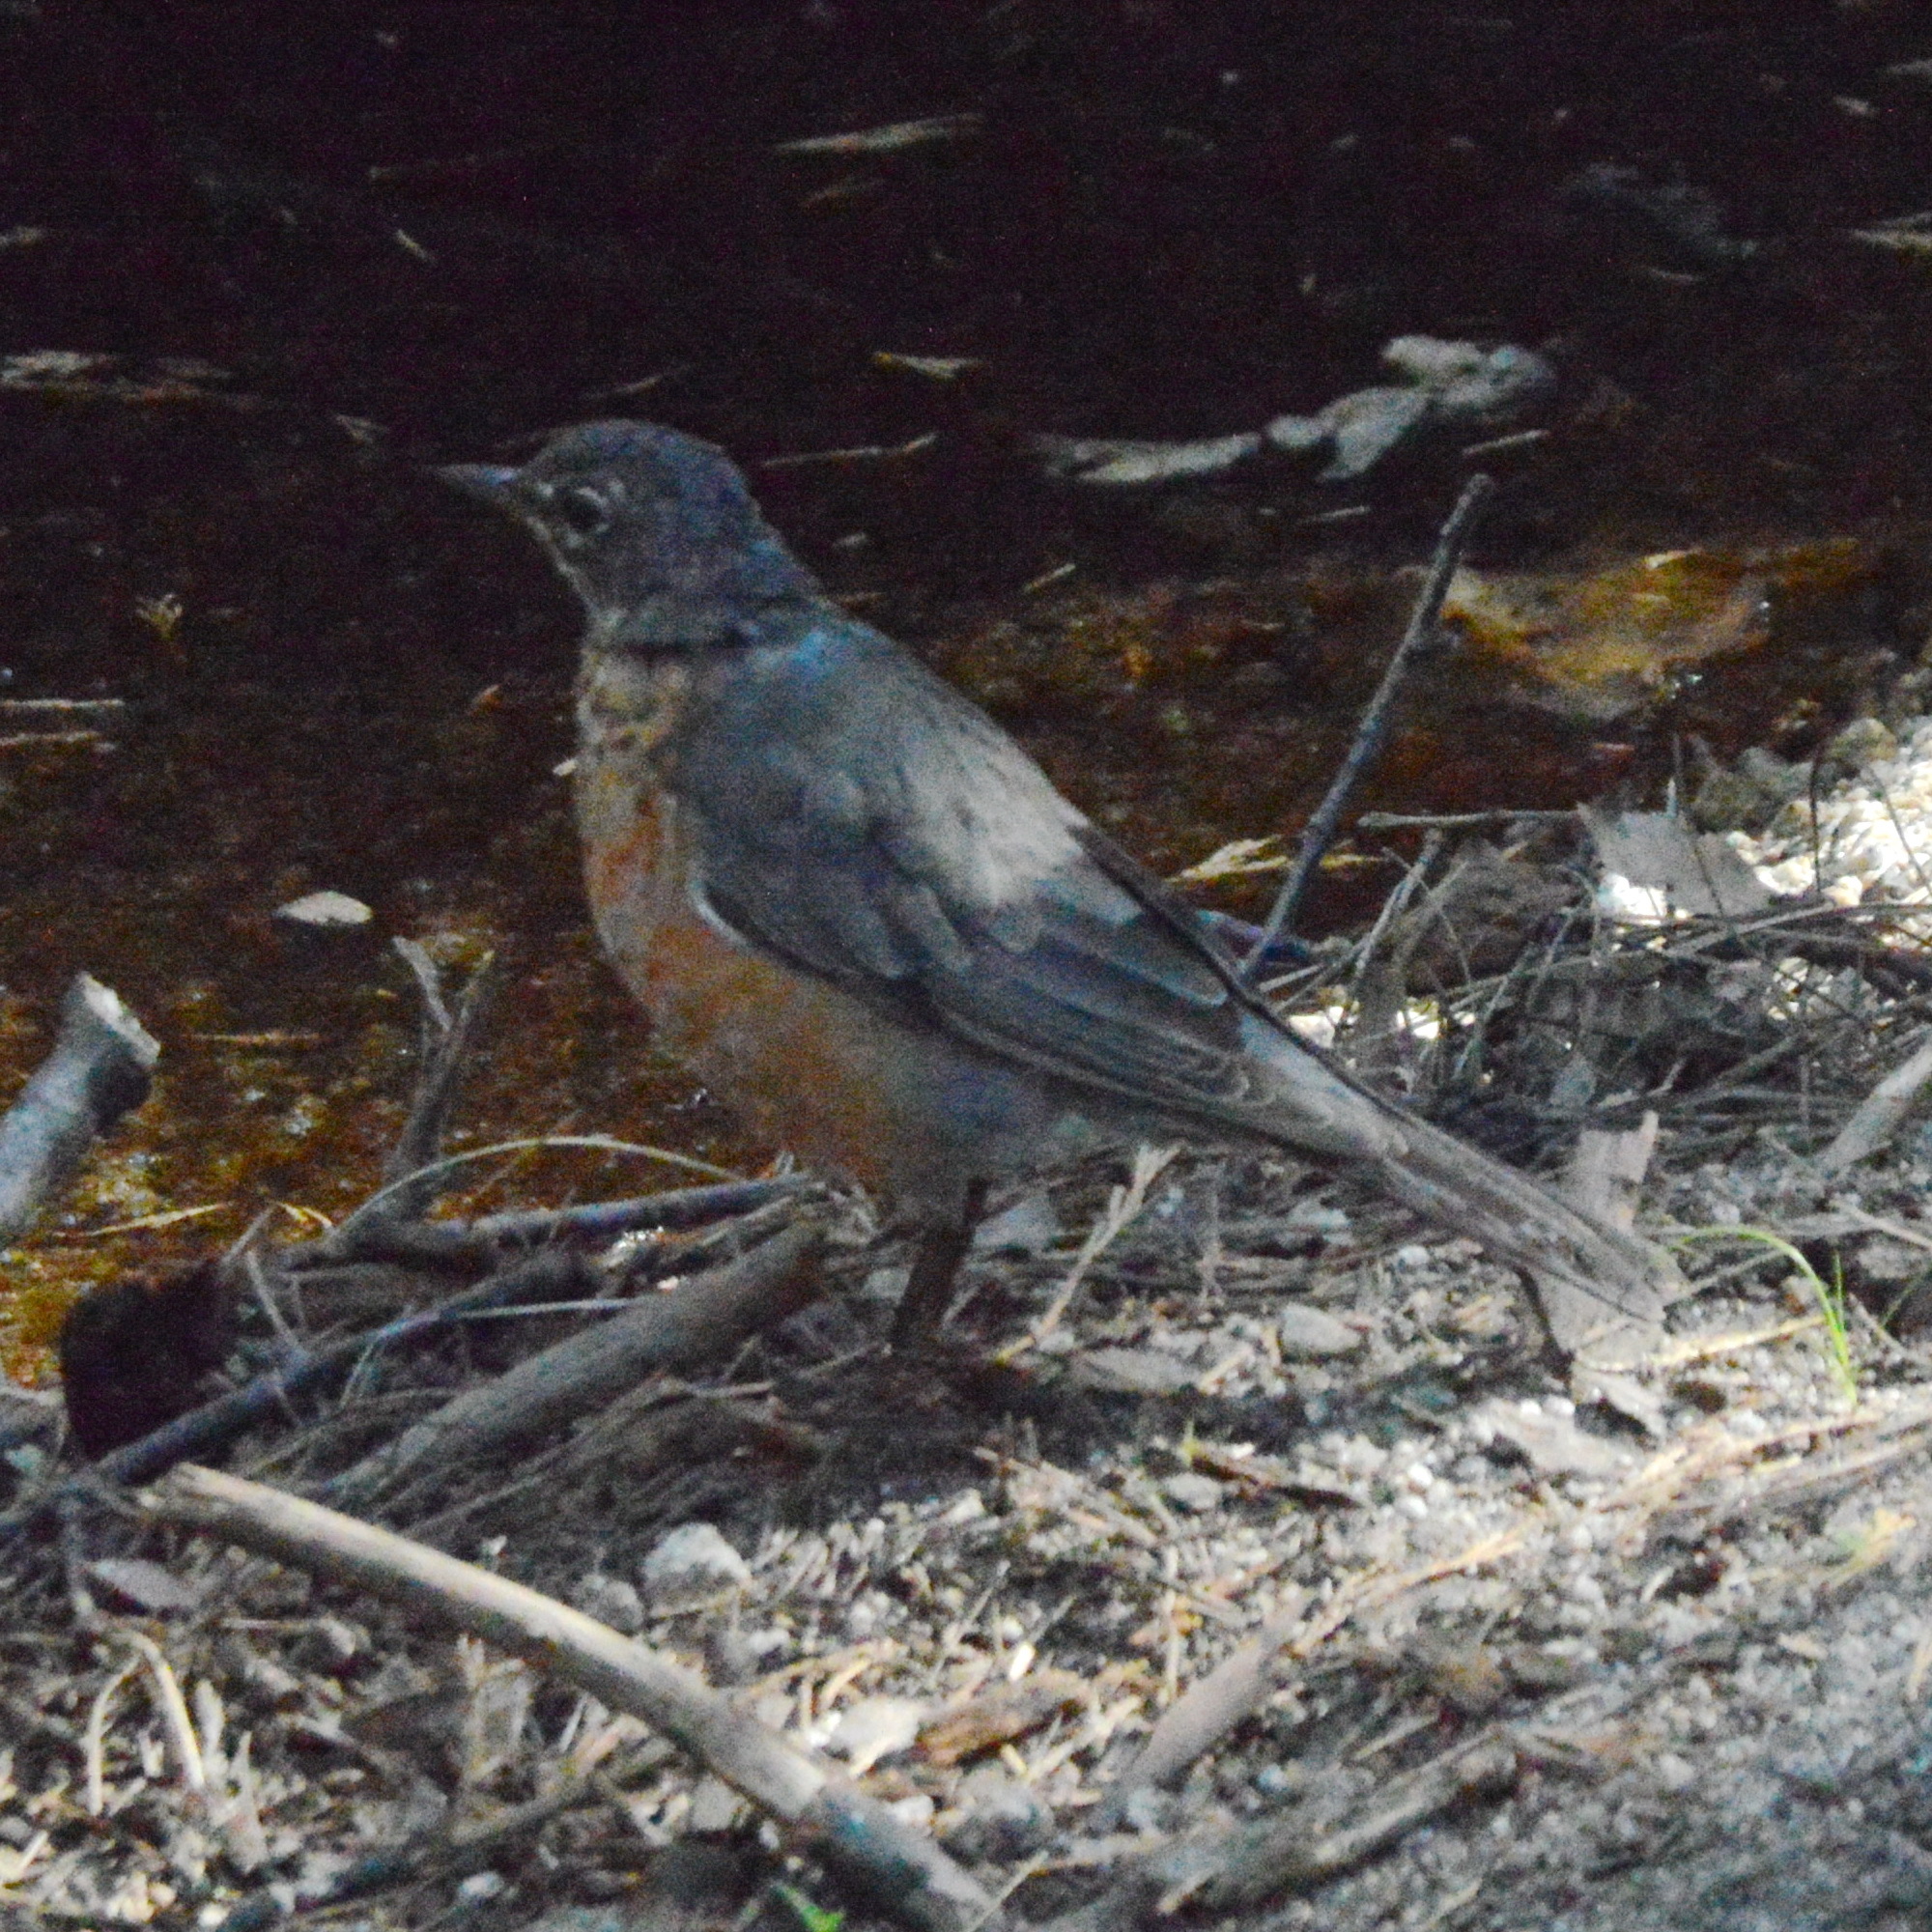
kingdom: Animalia
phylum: Chordata
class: Aves
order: Passeriformes
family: Turdidae
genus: Turdus
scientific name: Turdus migratorius
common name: American robin
